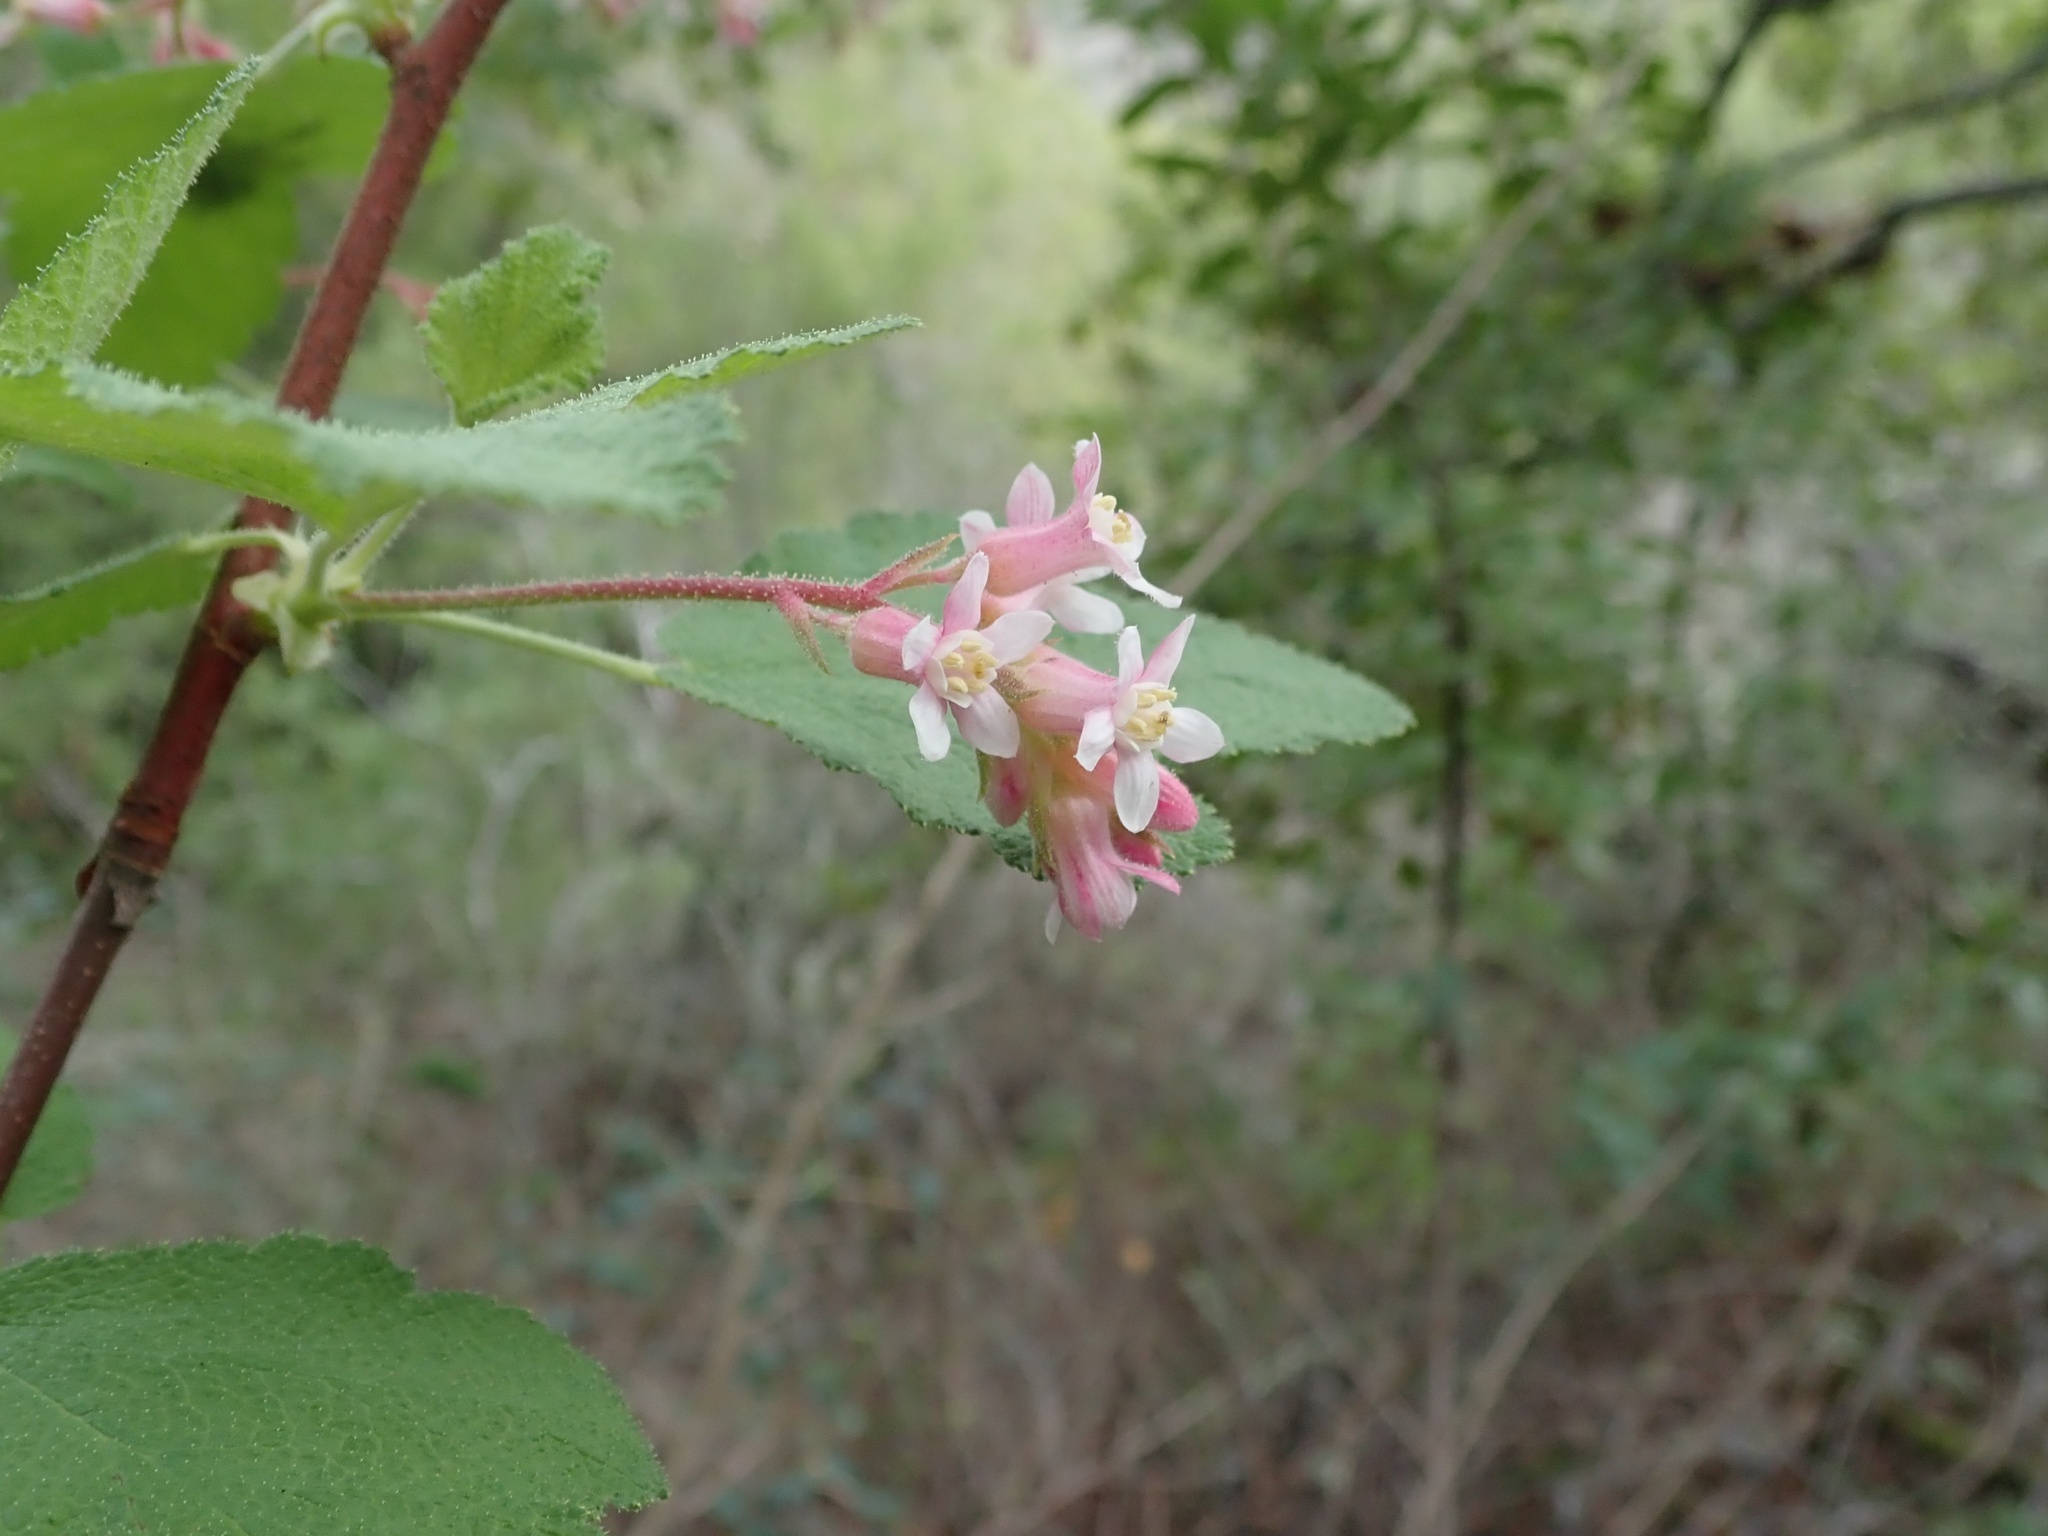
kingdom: Plantae
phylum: Tracheophyta
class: Magnoliopsida
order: Saxifragales
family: Grossulariaceae
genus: Ribes
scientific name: Ribes malvaceum
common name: Chaparral currant
